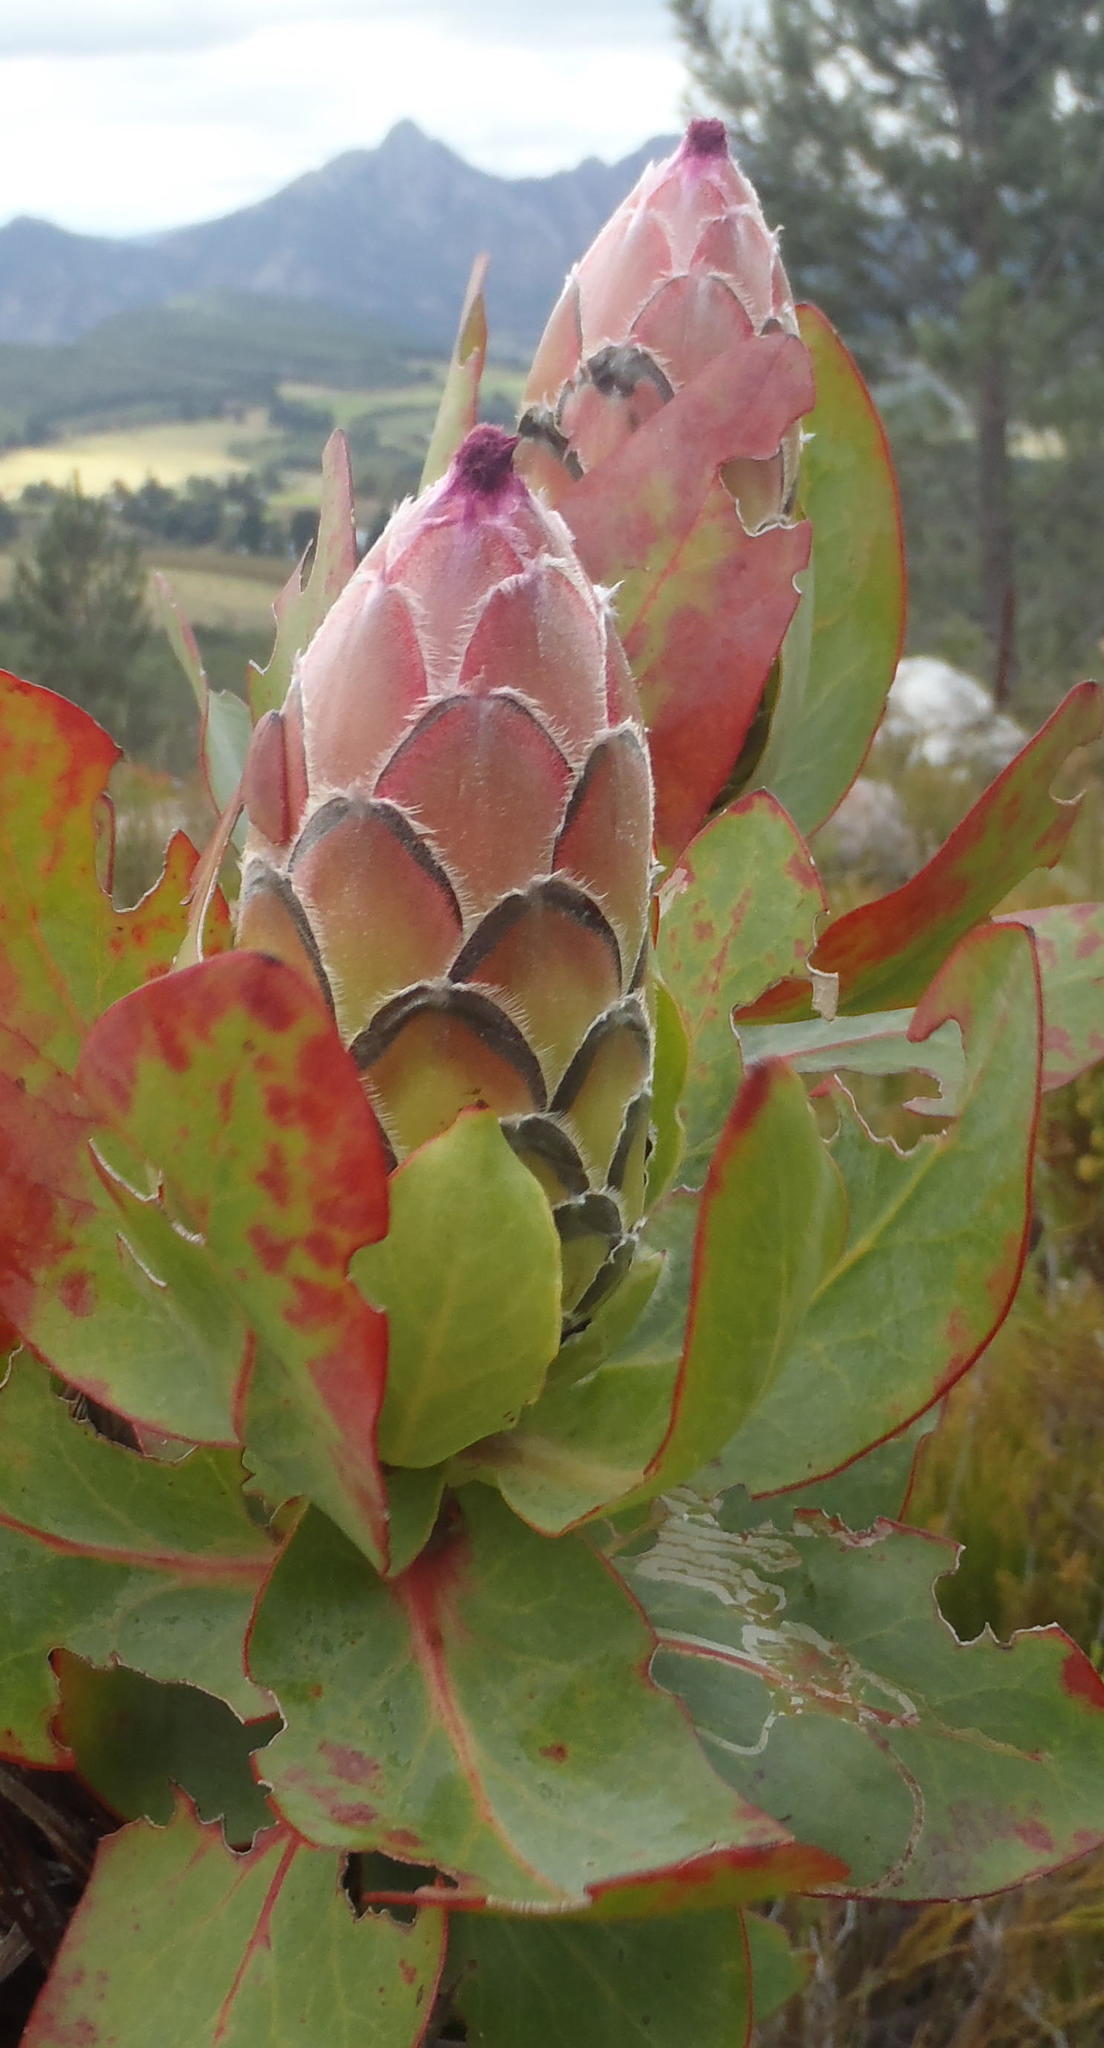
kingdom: Plantae
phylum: Tracheophyta
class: Magnoliopsida
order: Proteales
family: Proteaceae
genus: Protea
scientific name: Protea eximia
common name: Broad-leaved sugarbush
